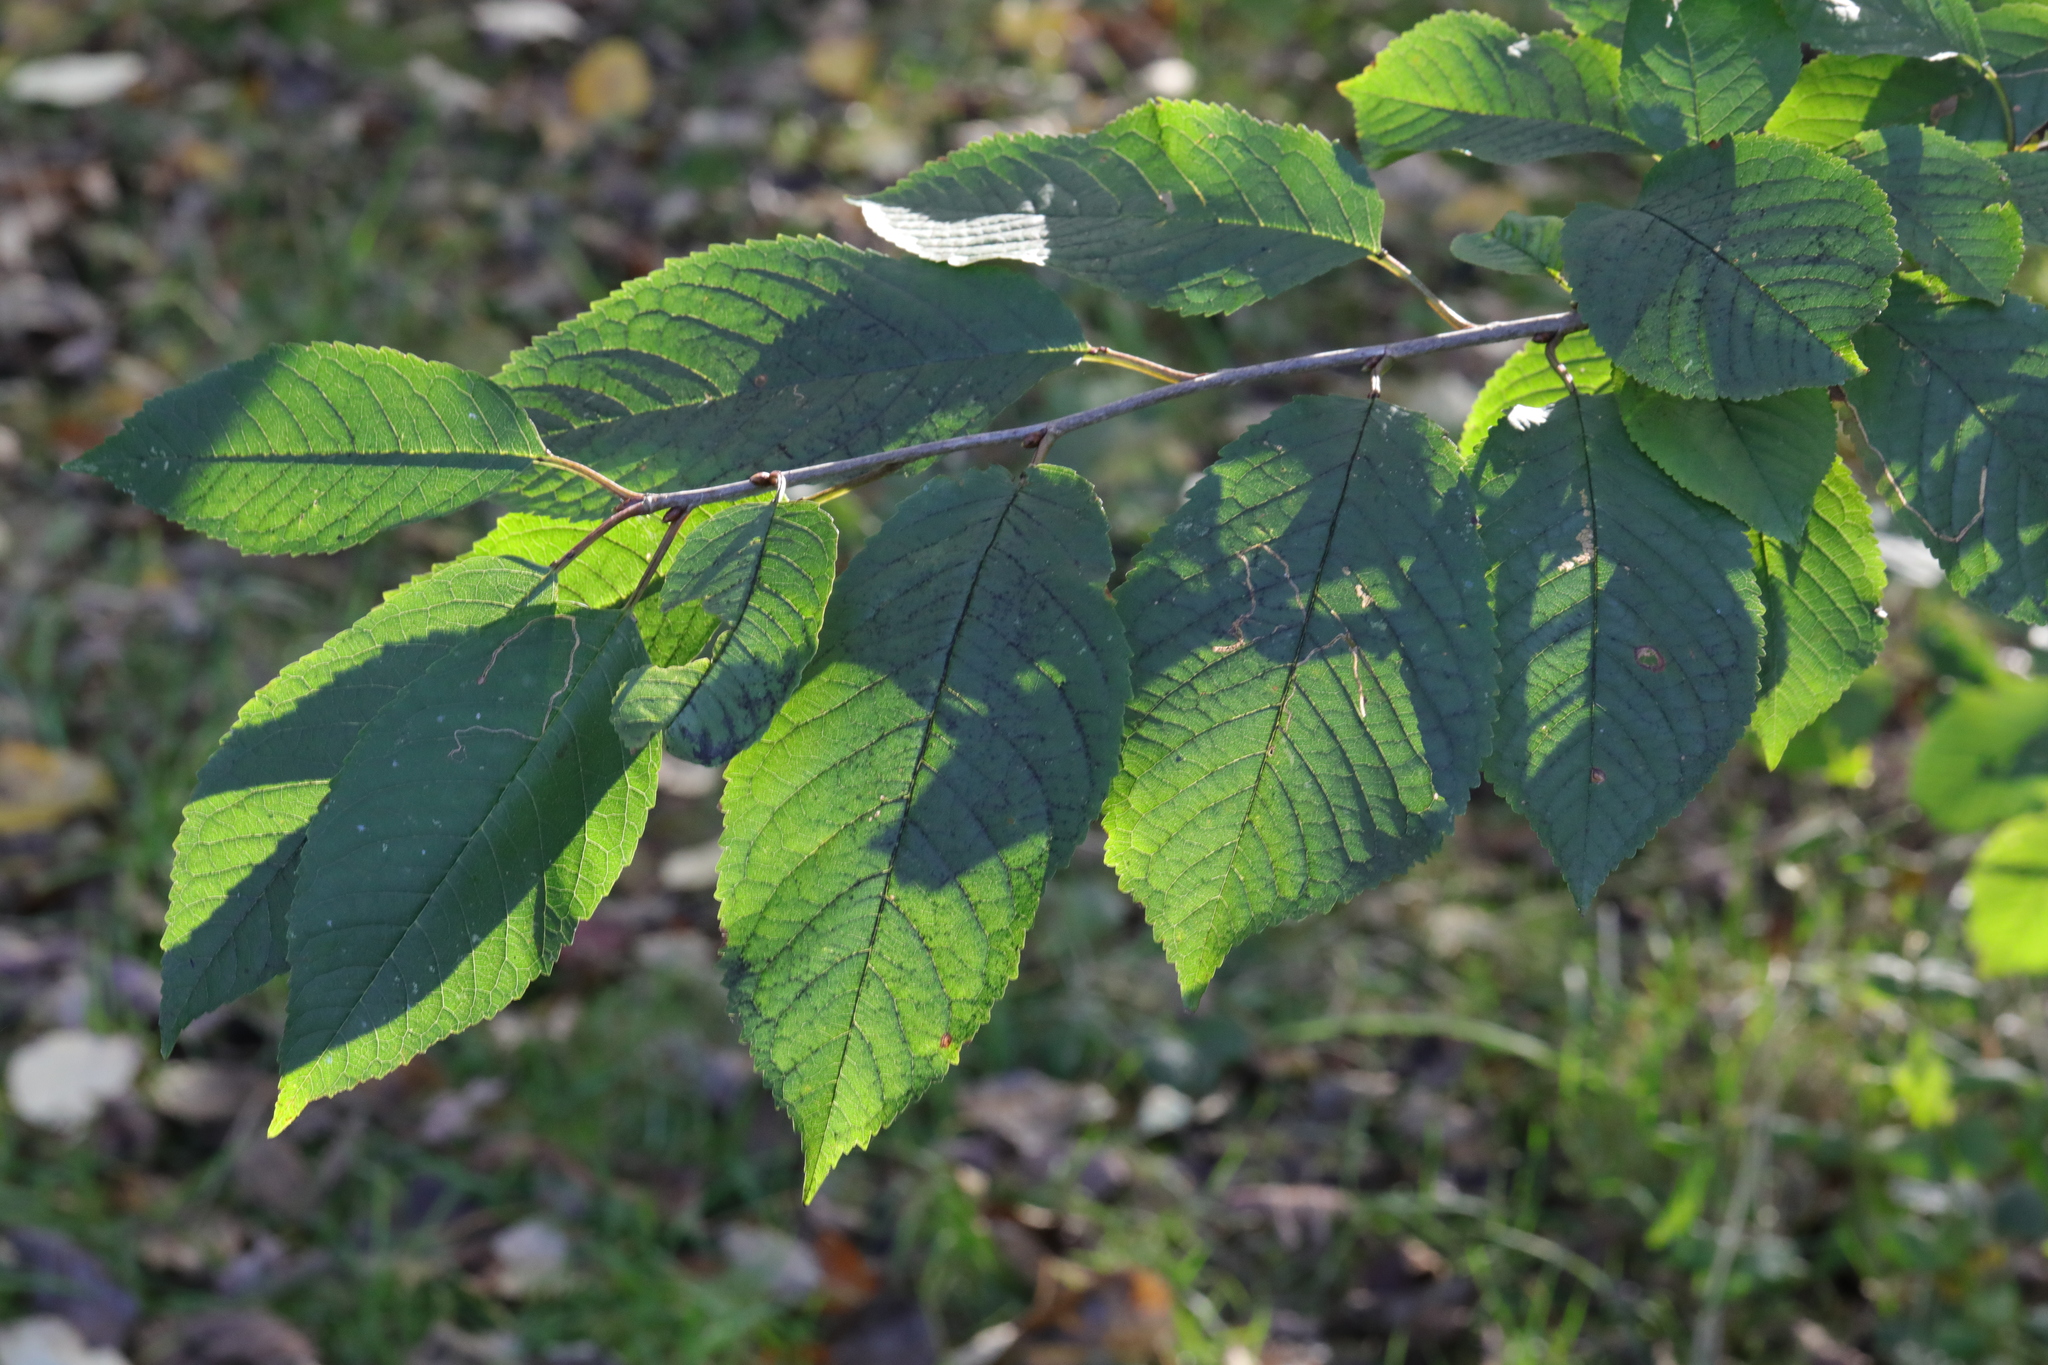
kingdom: Plantae
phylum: Tracheophyta
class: Magnoliopsida
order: Rosales
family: Rosaceae
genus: Prunus
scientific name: Prunus avium
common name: Sweet cherry
